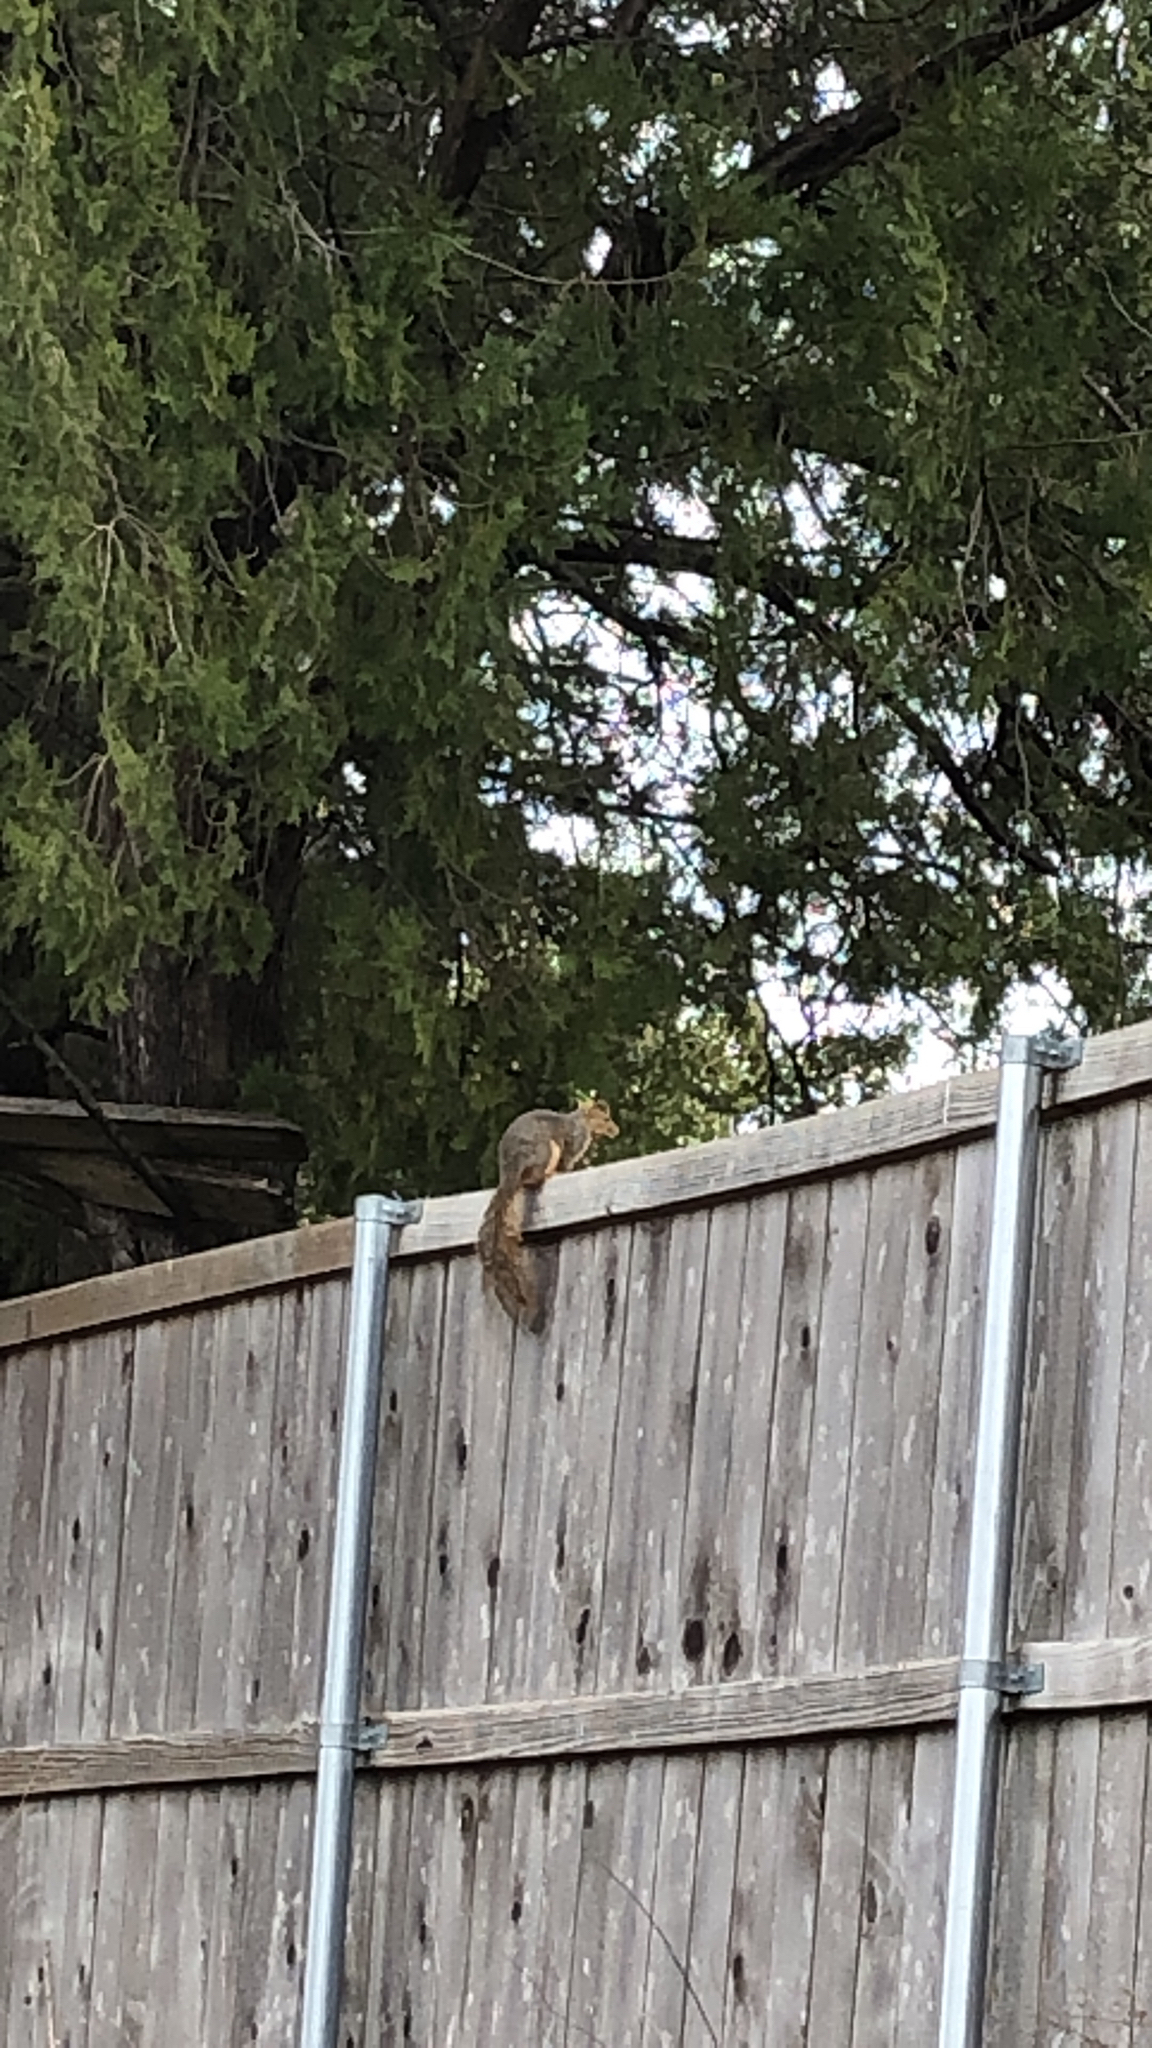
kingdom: Animalia
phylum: Chordata
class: Mammalia
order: Rodentia
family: Sciuridae
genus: Sciurus
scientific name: Sciurus niger
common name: Fox squirrel
